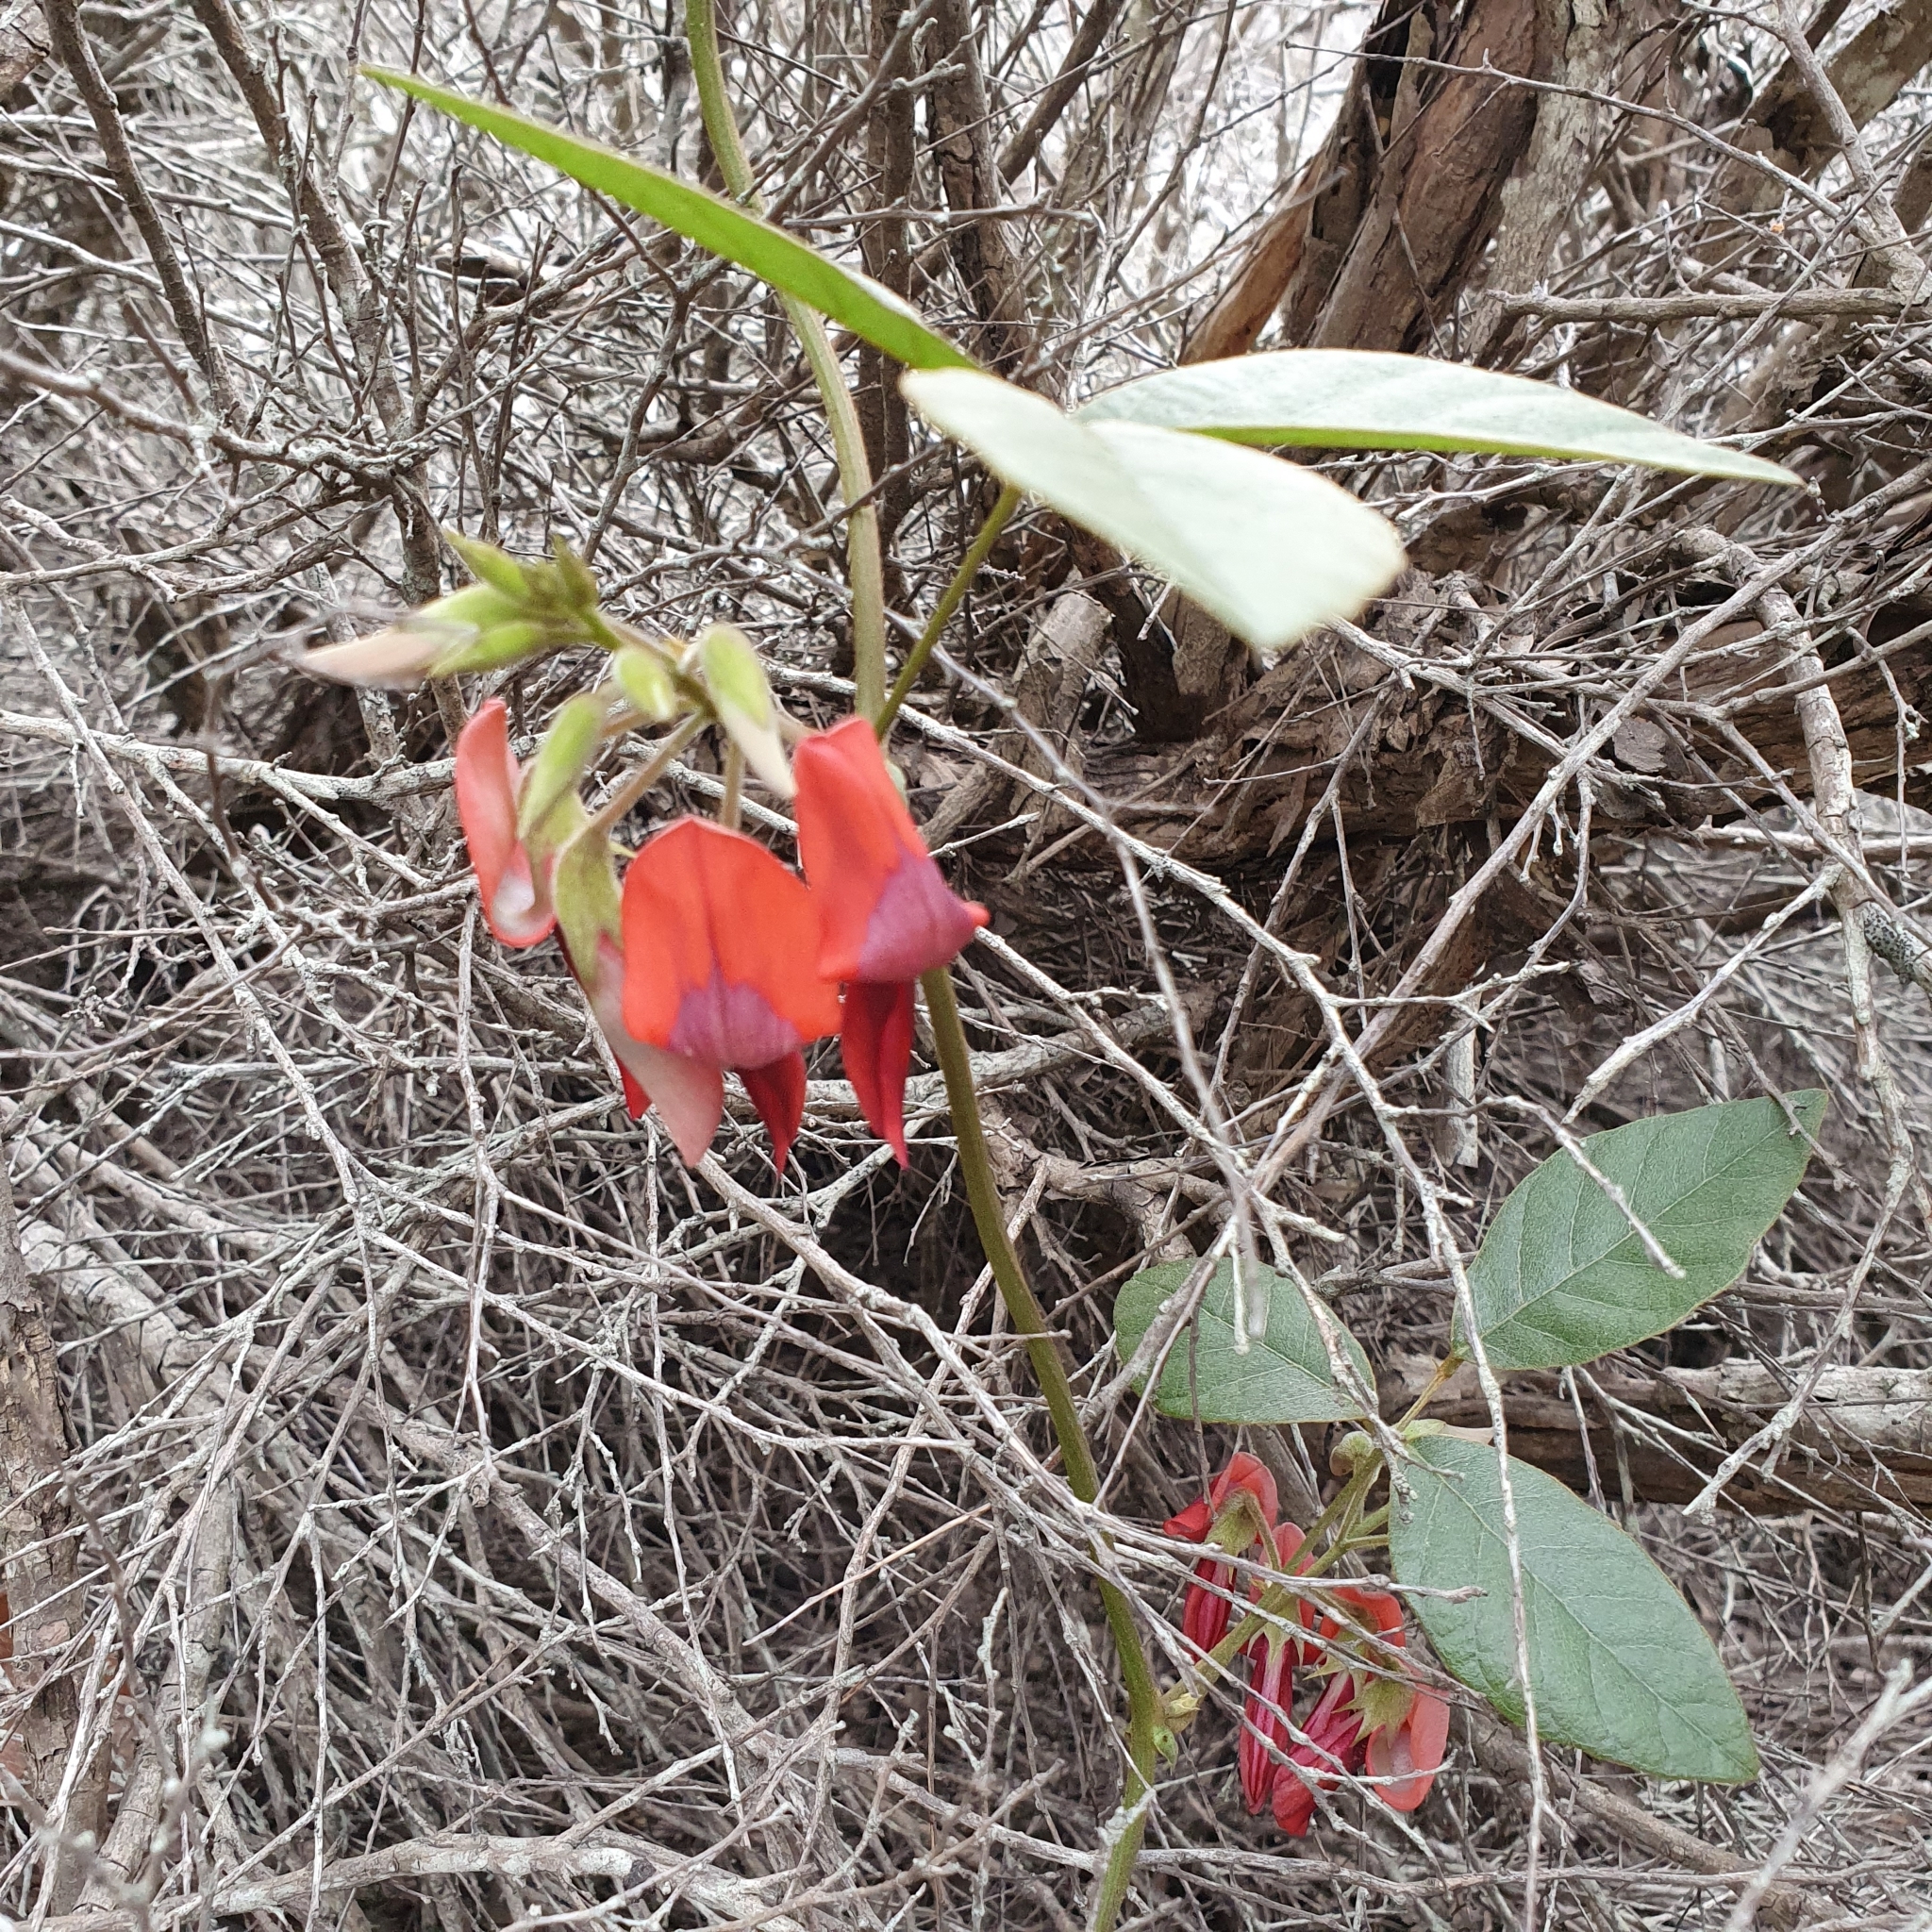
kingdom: Plantae
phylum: Tracheophyta
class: Magnoliopsida
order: Fabales
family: Fabaceae
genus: Kennedia
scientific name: Kennedia rubicunda
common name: Red kennedy-pea
